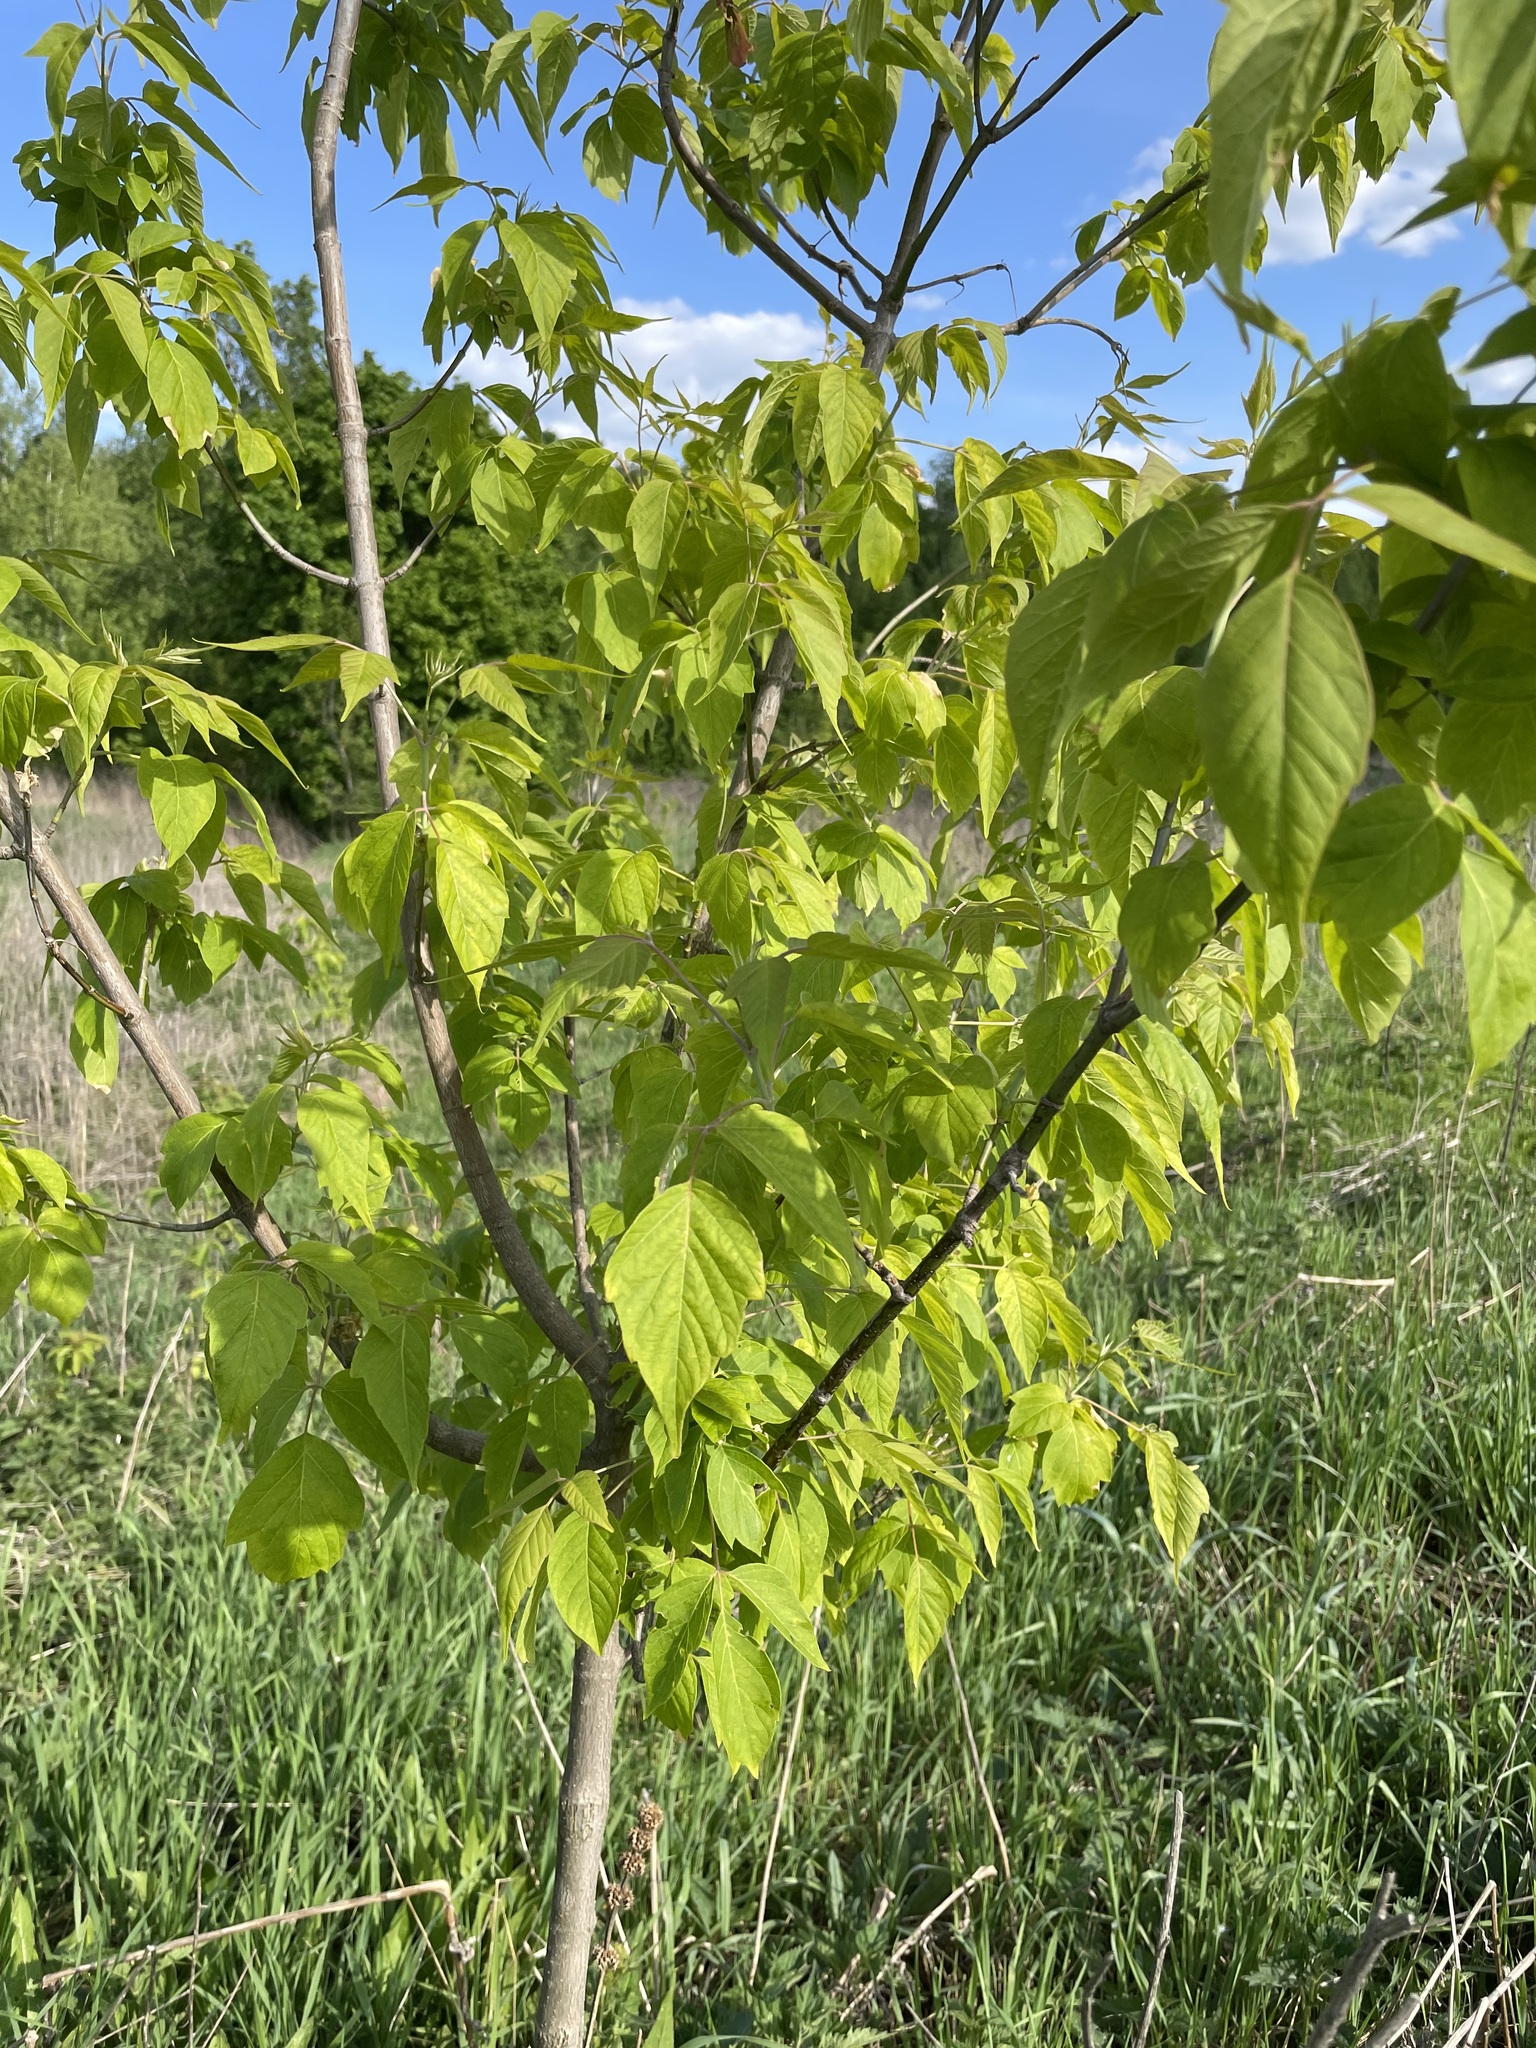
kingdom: Plantae
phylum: Tracheophyta
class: Magnoliopsida
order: Sapindales
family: Sapindaceae
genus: Acer
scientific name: Acer negundo
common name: Ashleaf maple
